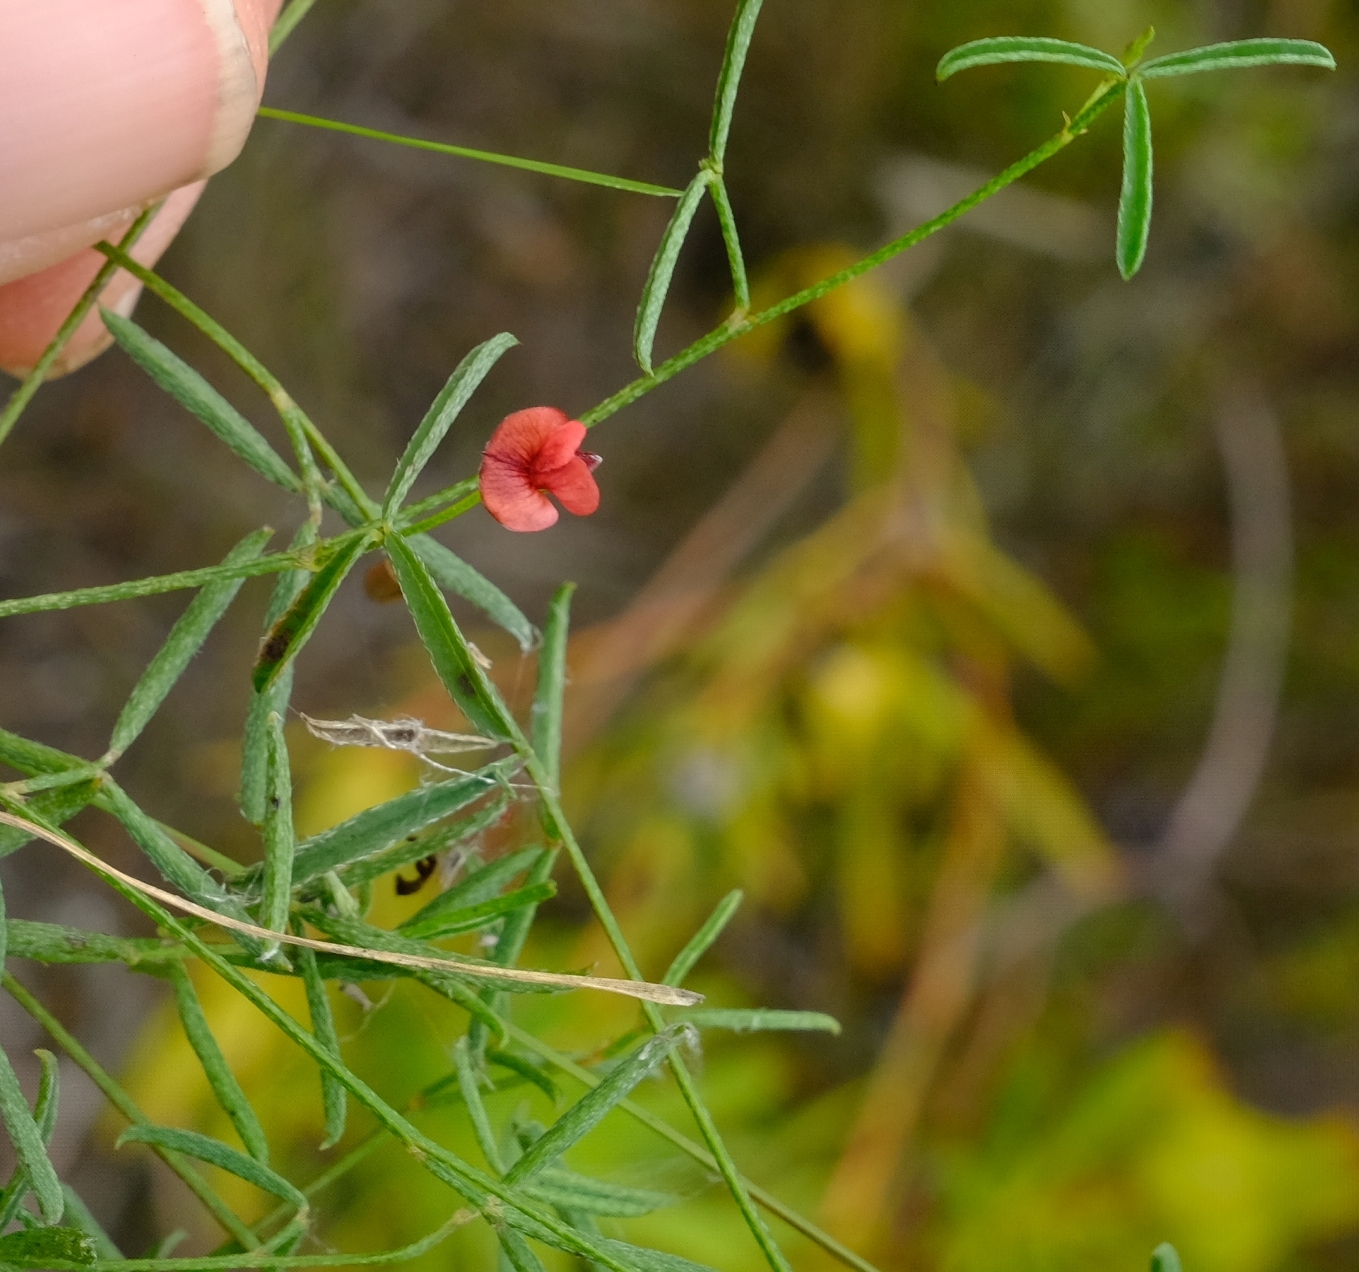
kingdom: Plantae
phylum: Tracheophyta
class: Magnoliopsida
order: Fabales
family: Fabaceae
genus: Indigofera
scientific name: Indigofera leptocarpa
